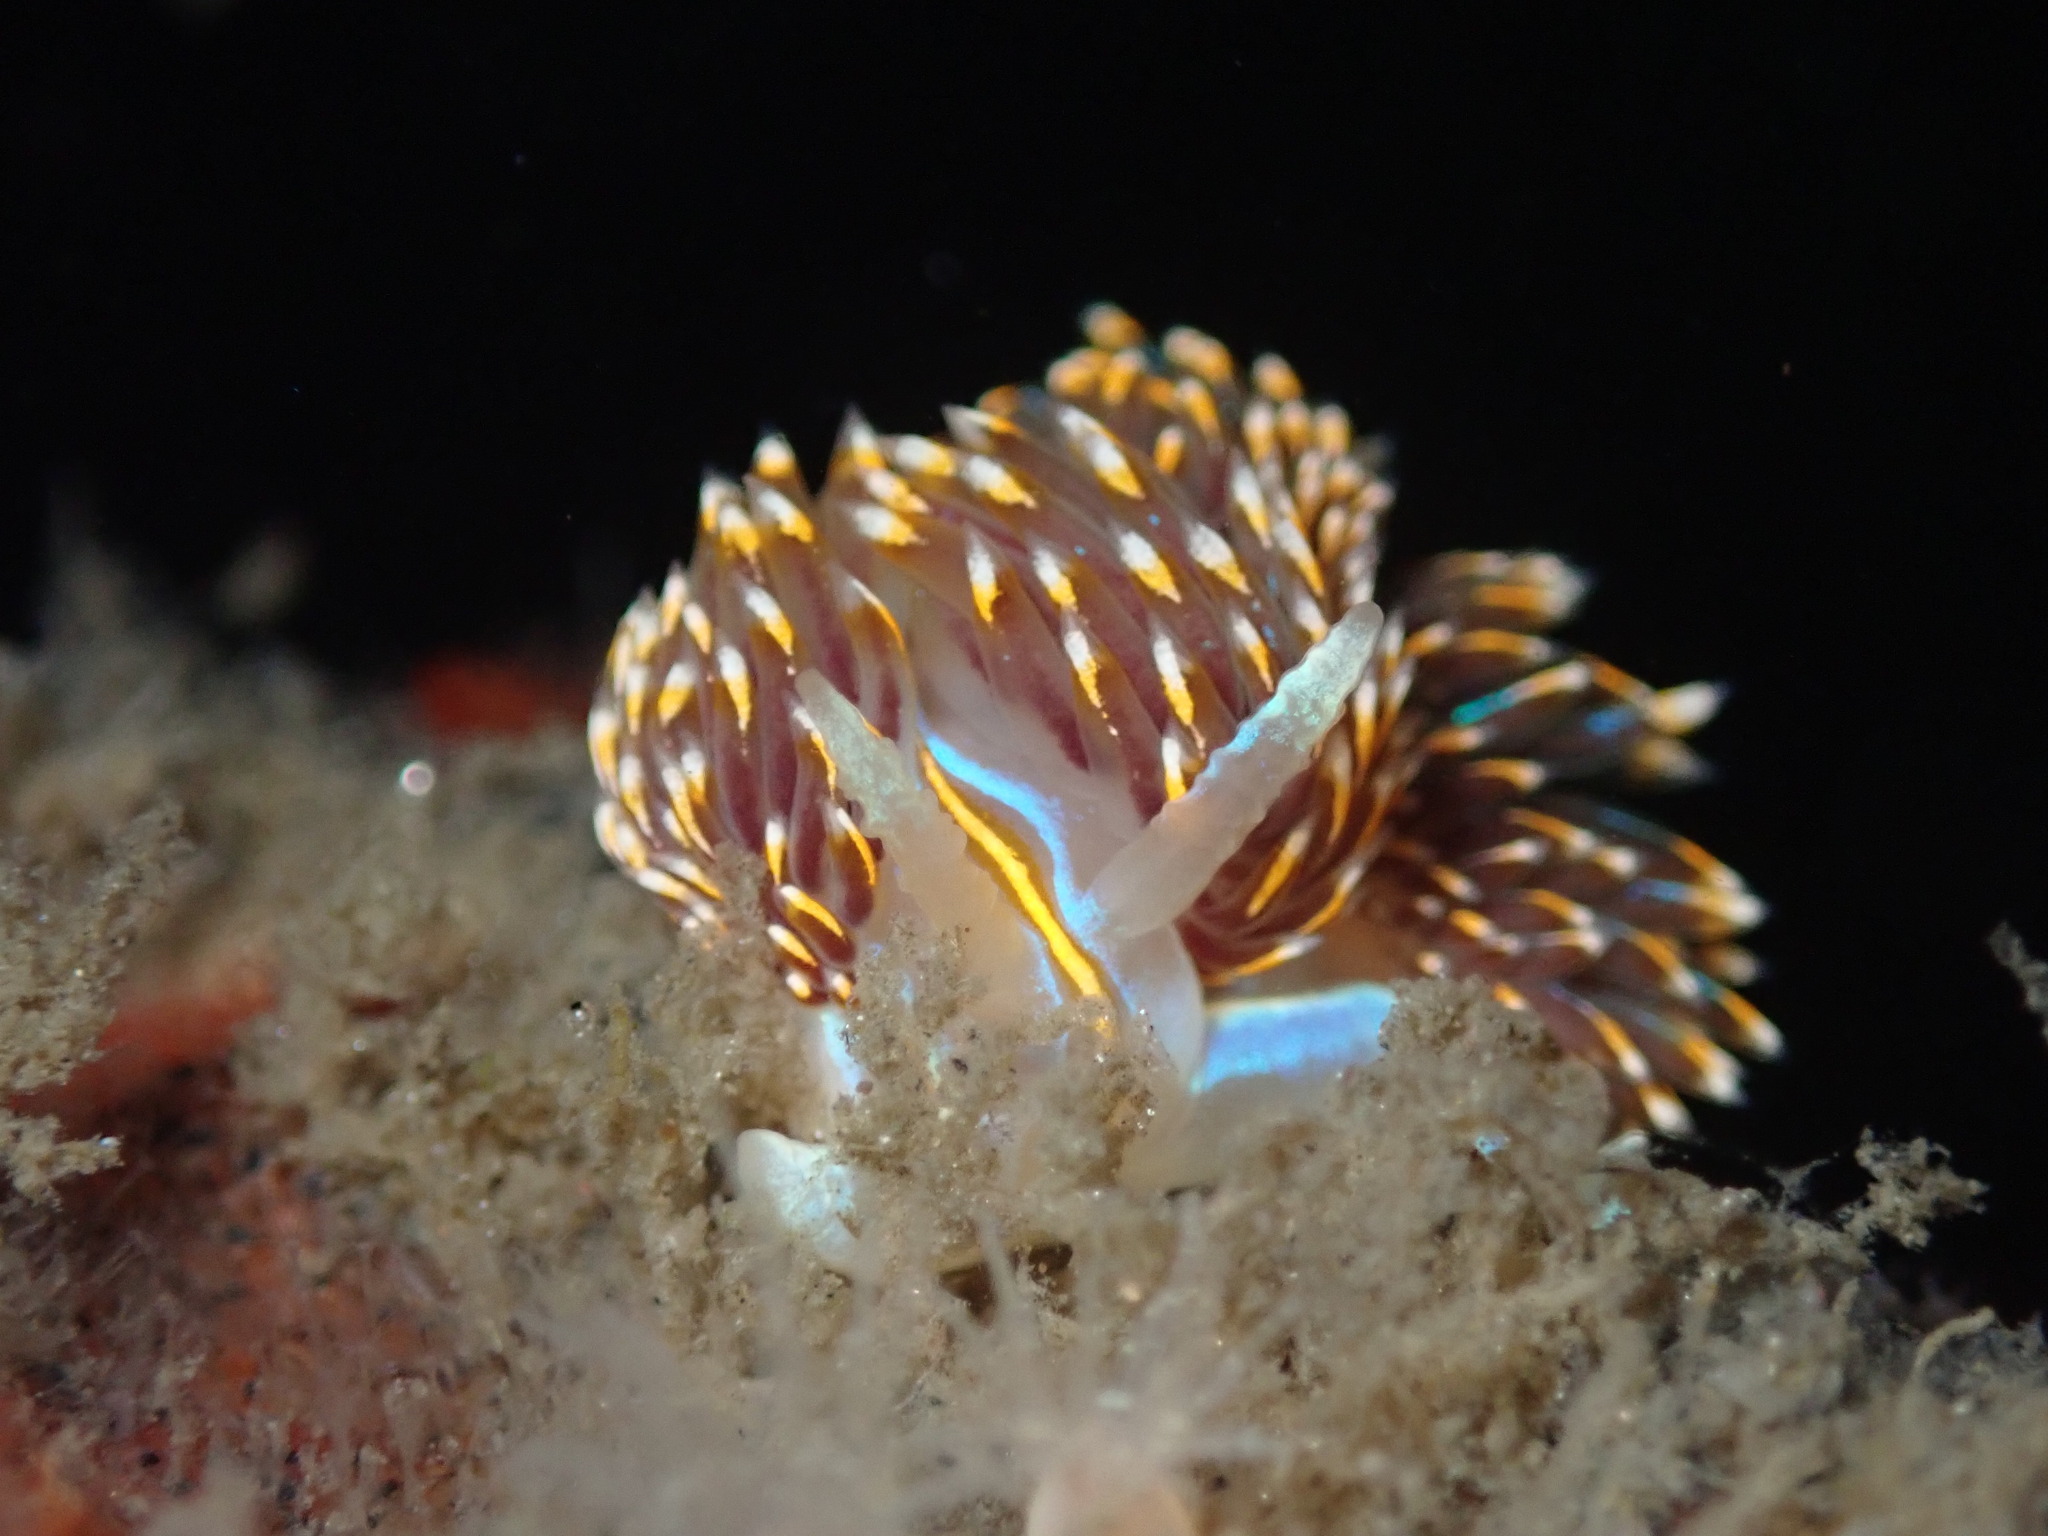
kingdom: Animalia
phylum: Mollusca
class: Gastropoda
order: Nudibranchia
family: Myrrhinidae
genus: Hermissenda
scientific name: Hermissenda opalescens
